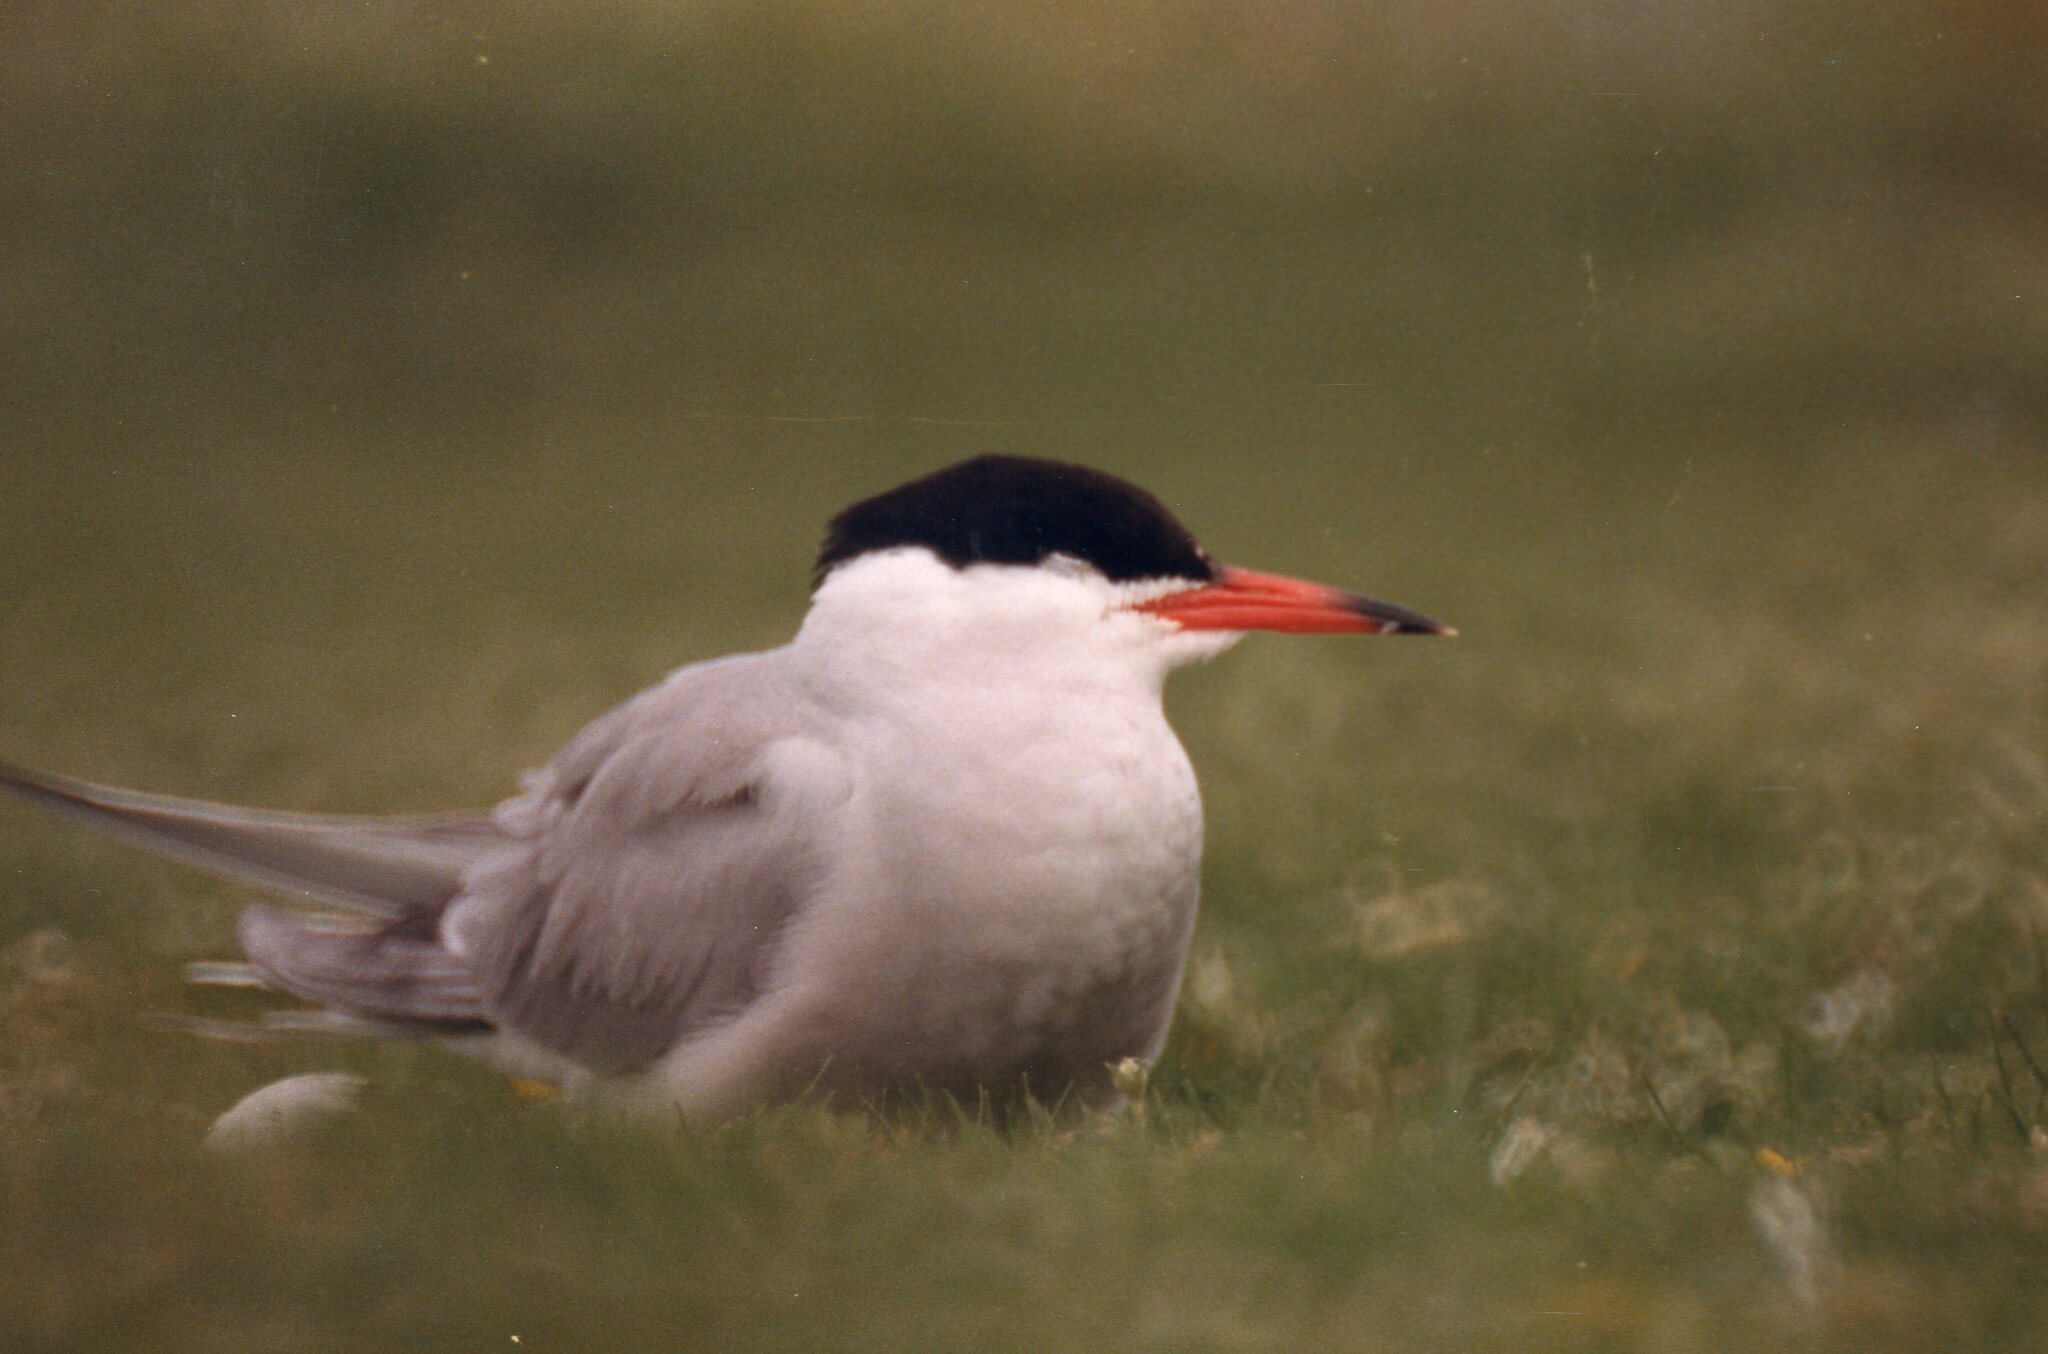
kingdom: Animalia
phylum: Chordata
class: Aves
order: Charadriiformes
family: Laridae
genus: Sterna
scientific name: Sterna hirundo
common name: Common tern
